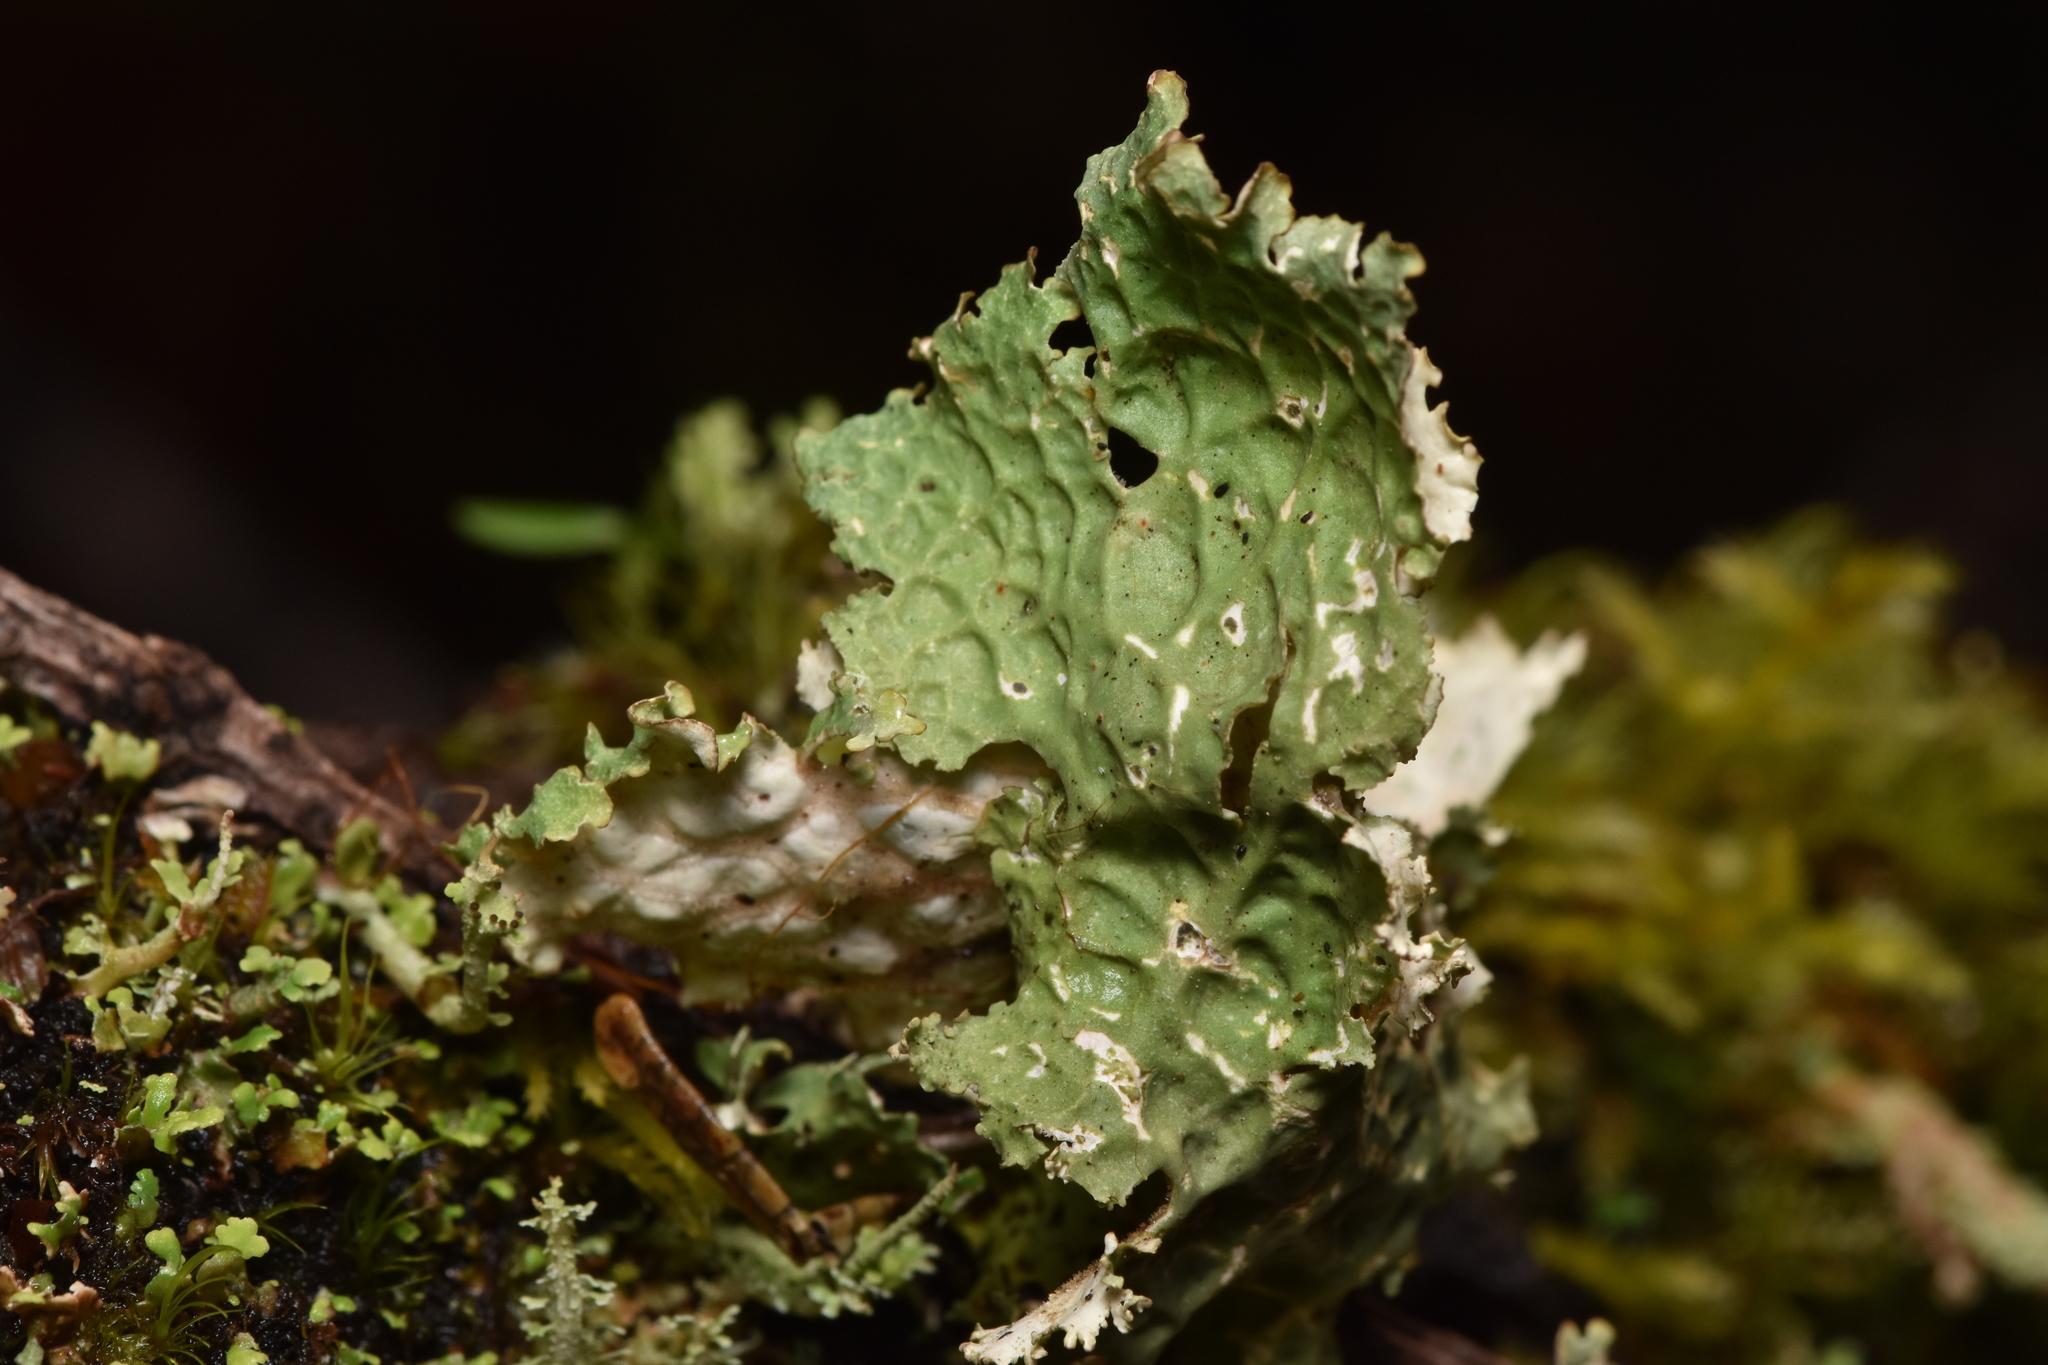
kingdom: Fungi
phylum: Ascomycota
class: Lecanoromycetes
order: Peltigerales
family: Lobariaceae
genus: Lobaria
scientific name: Lobaria oregana
